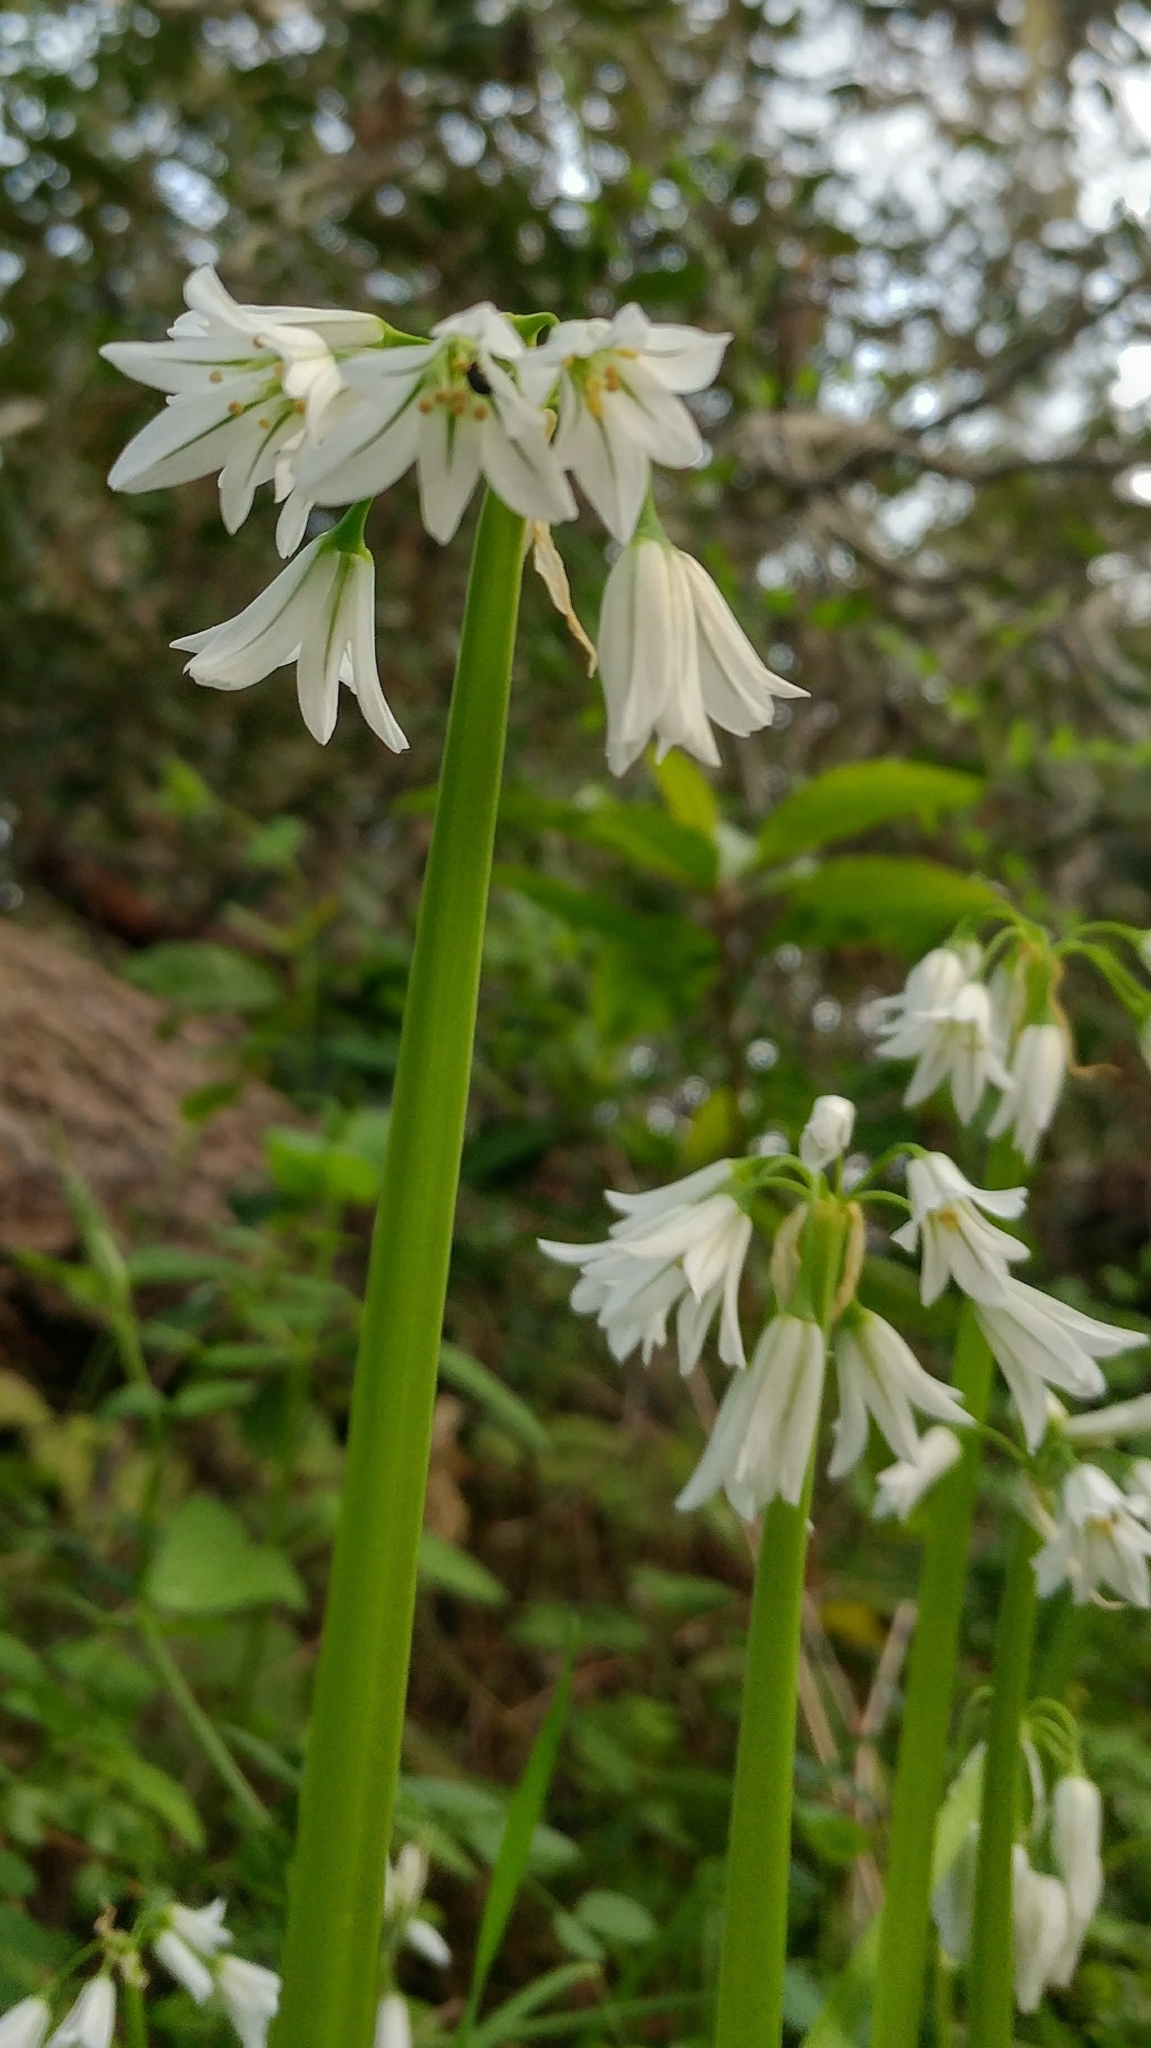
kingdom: Plantae
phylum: Tracheophyta
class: Liliopsida
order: Asparagales
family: Amaryllidaceae
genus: Allium
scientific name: Allium triquetrum
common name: Three-cornered garlic
